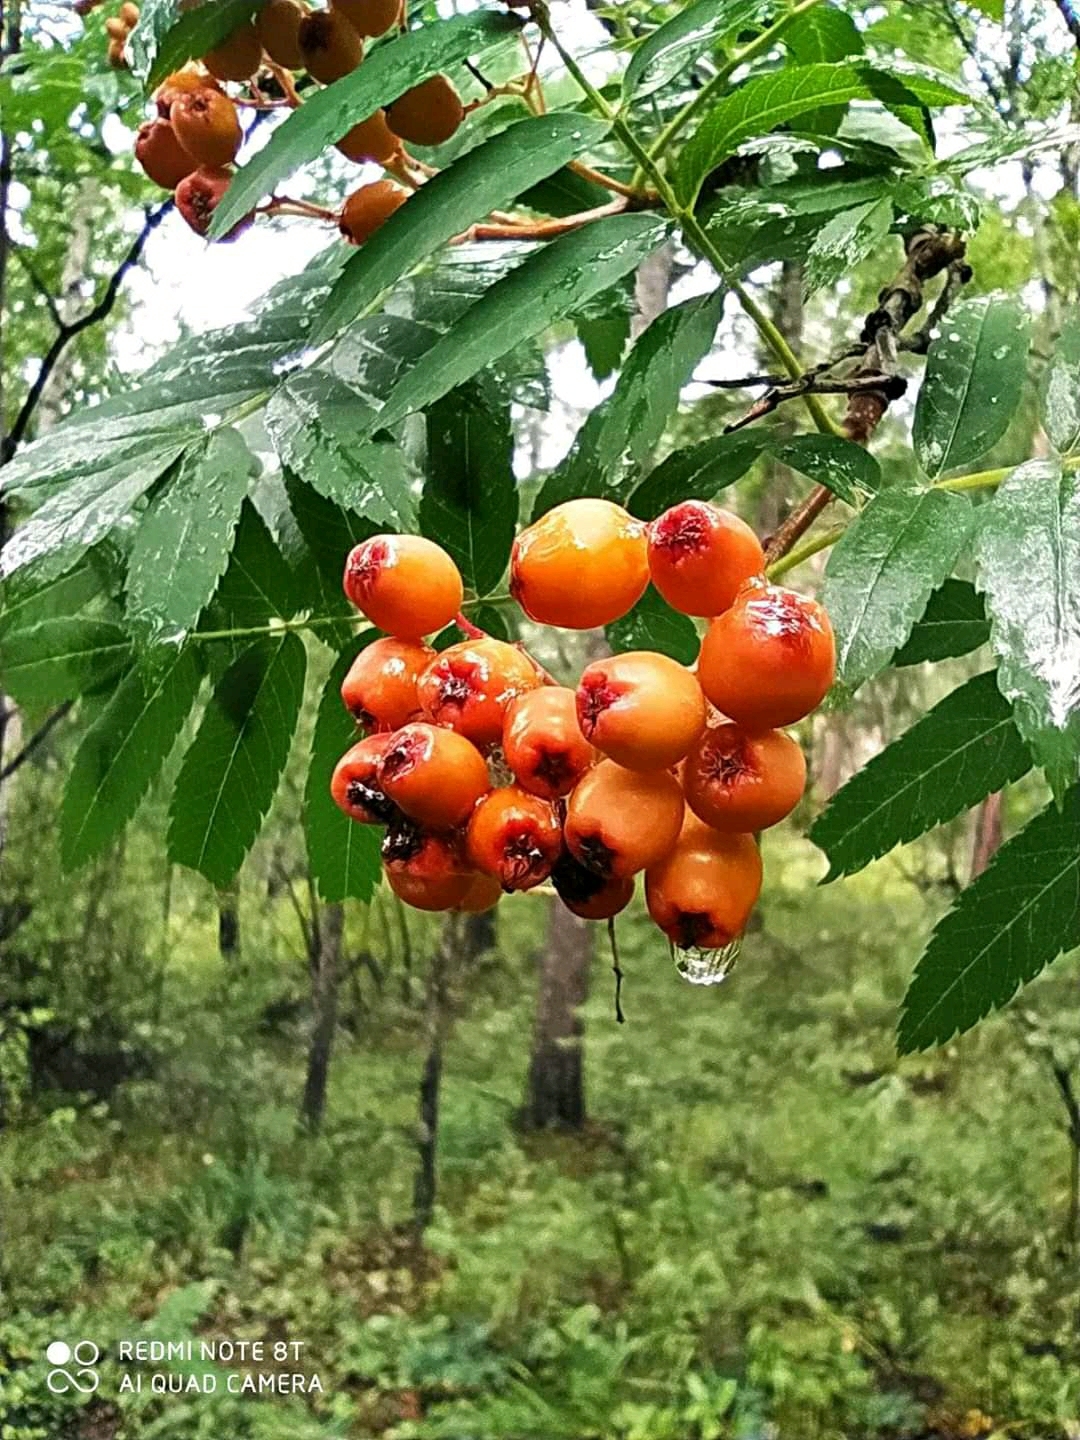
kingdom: Plantae
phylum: Tracheophyta
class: Magnoliopsida
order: Rosales
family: Rosaceae
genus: Sorbus
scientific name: Sorbus aucuparia
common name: Rowan
